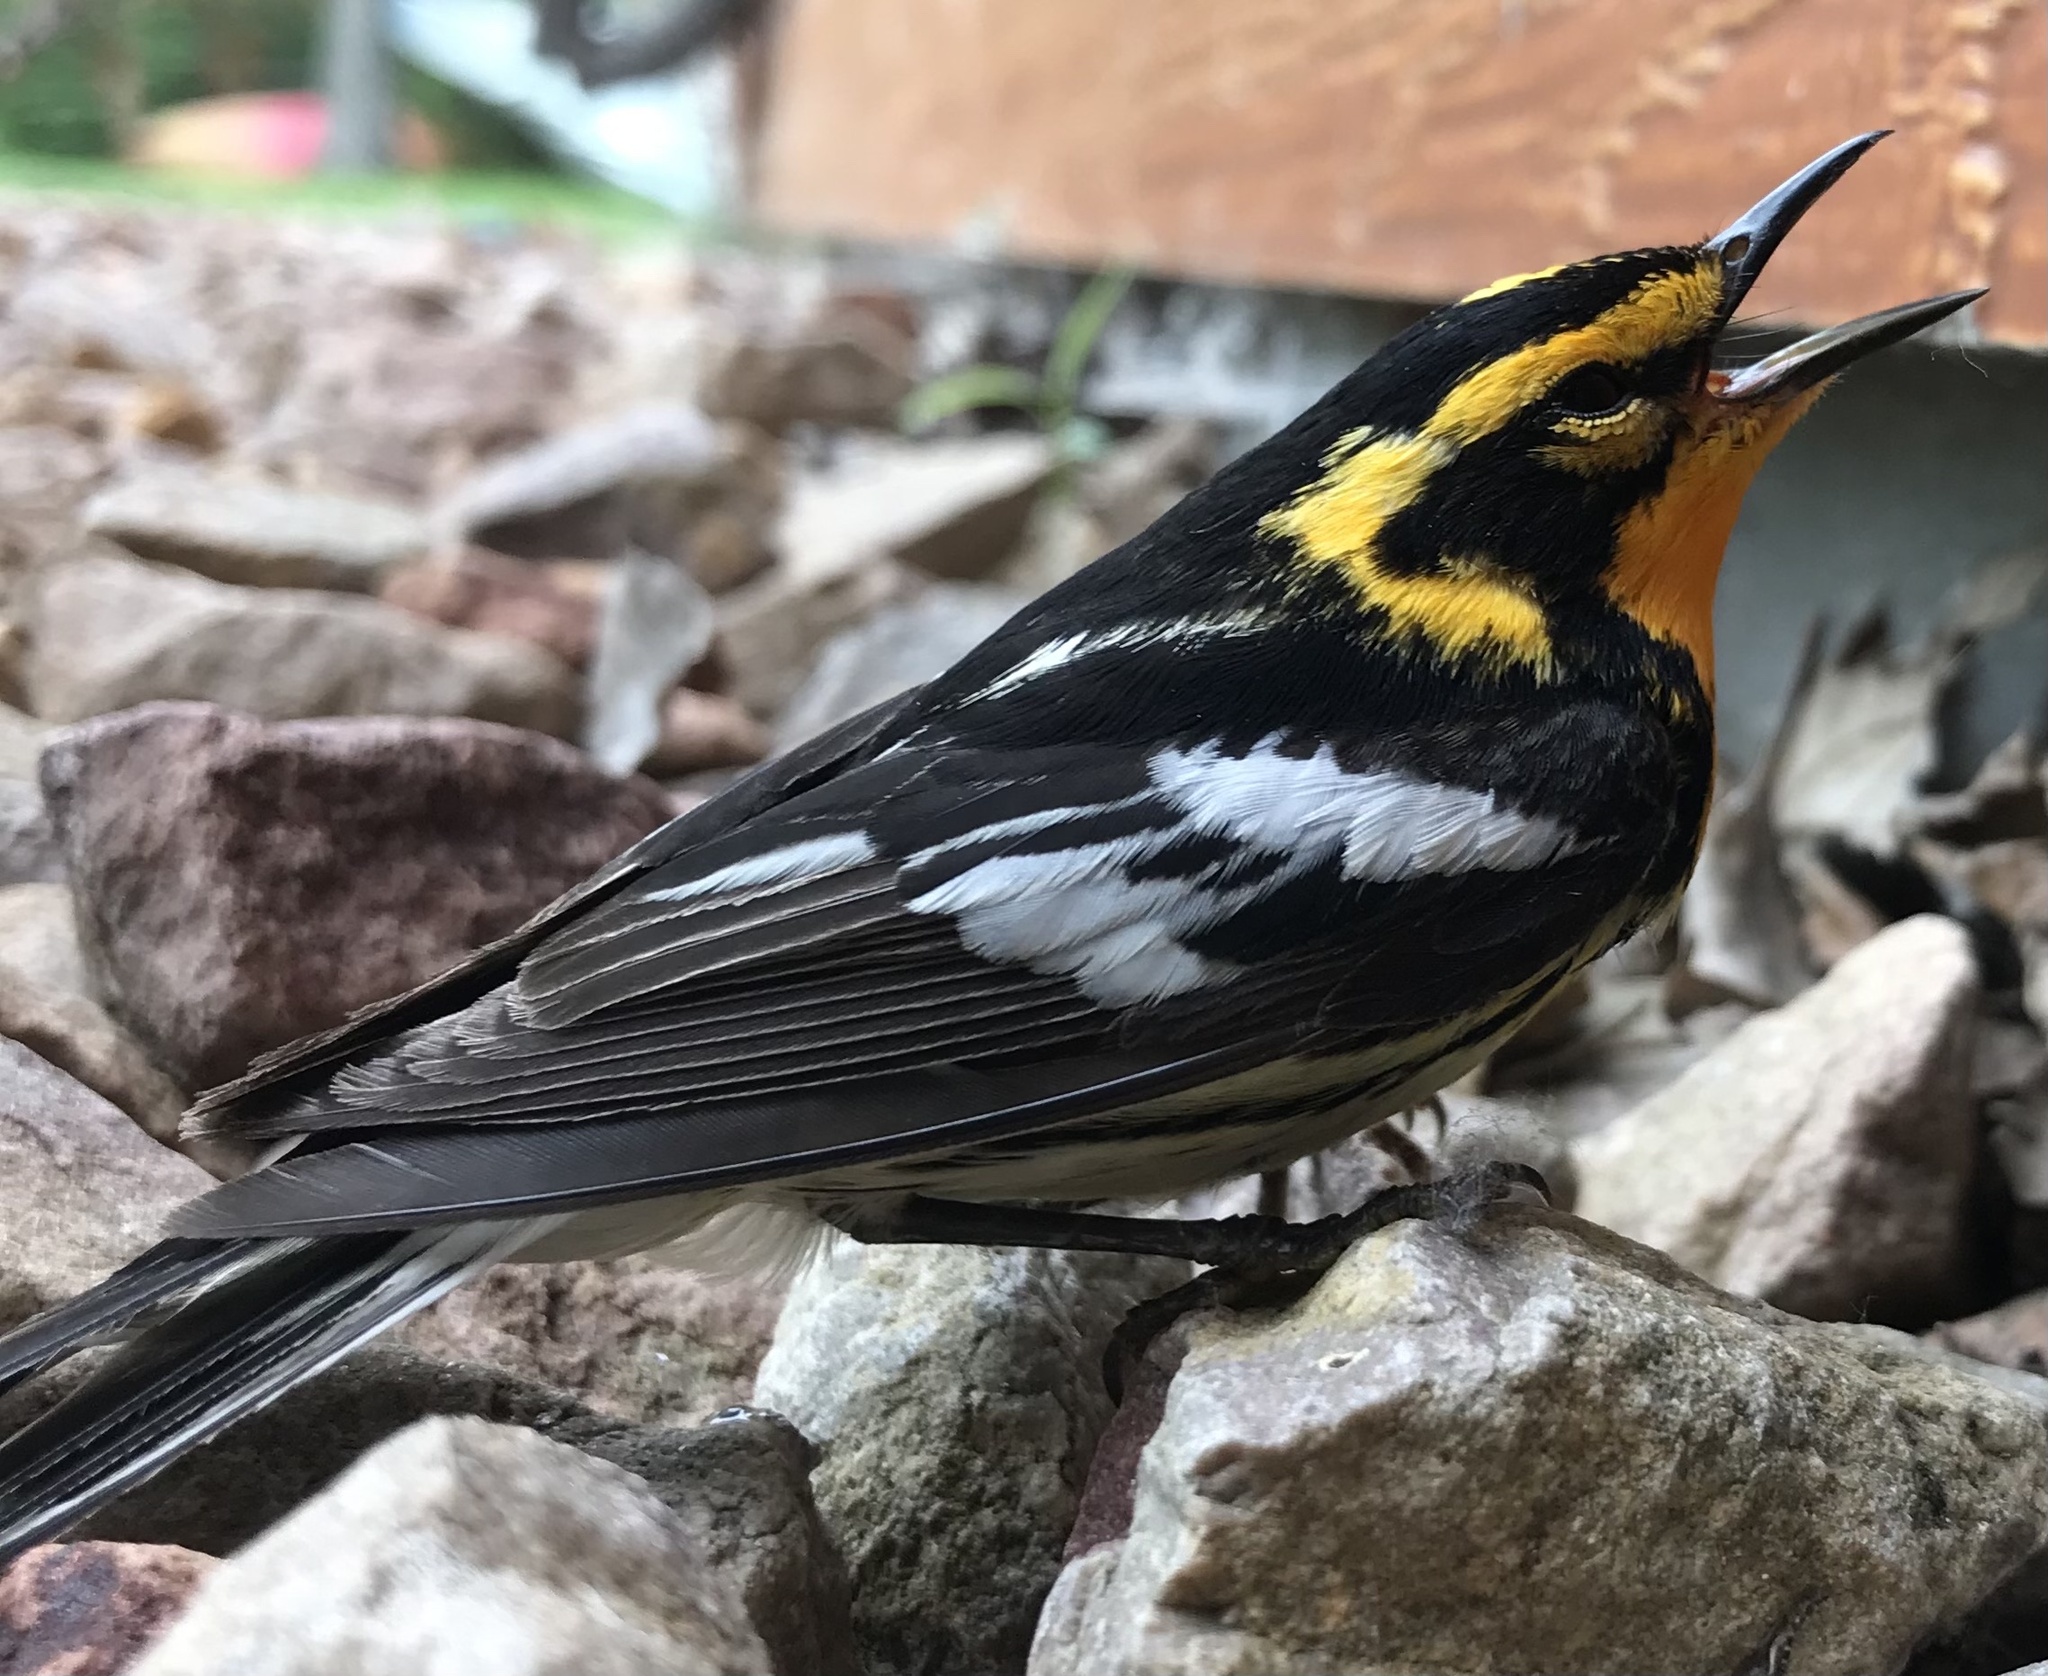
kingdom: Animalia
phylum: Chordata
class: Aves
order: Passeriformes
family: Parulidae
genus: Setophaga
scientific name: Setophaga fusca
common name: Blackburnian warbler
